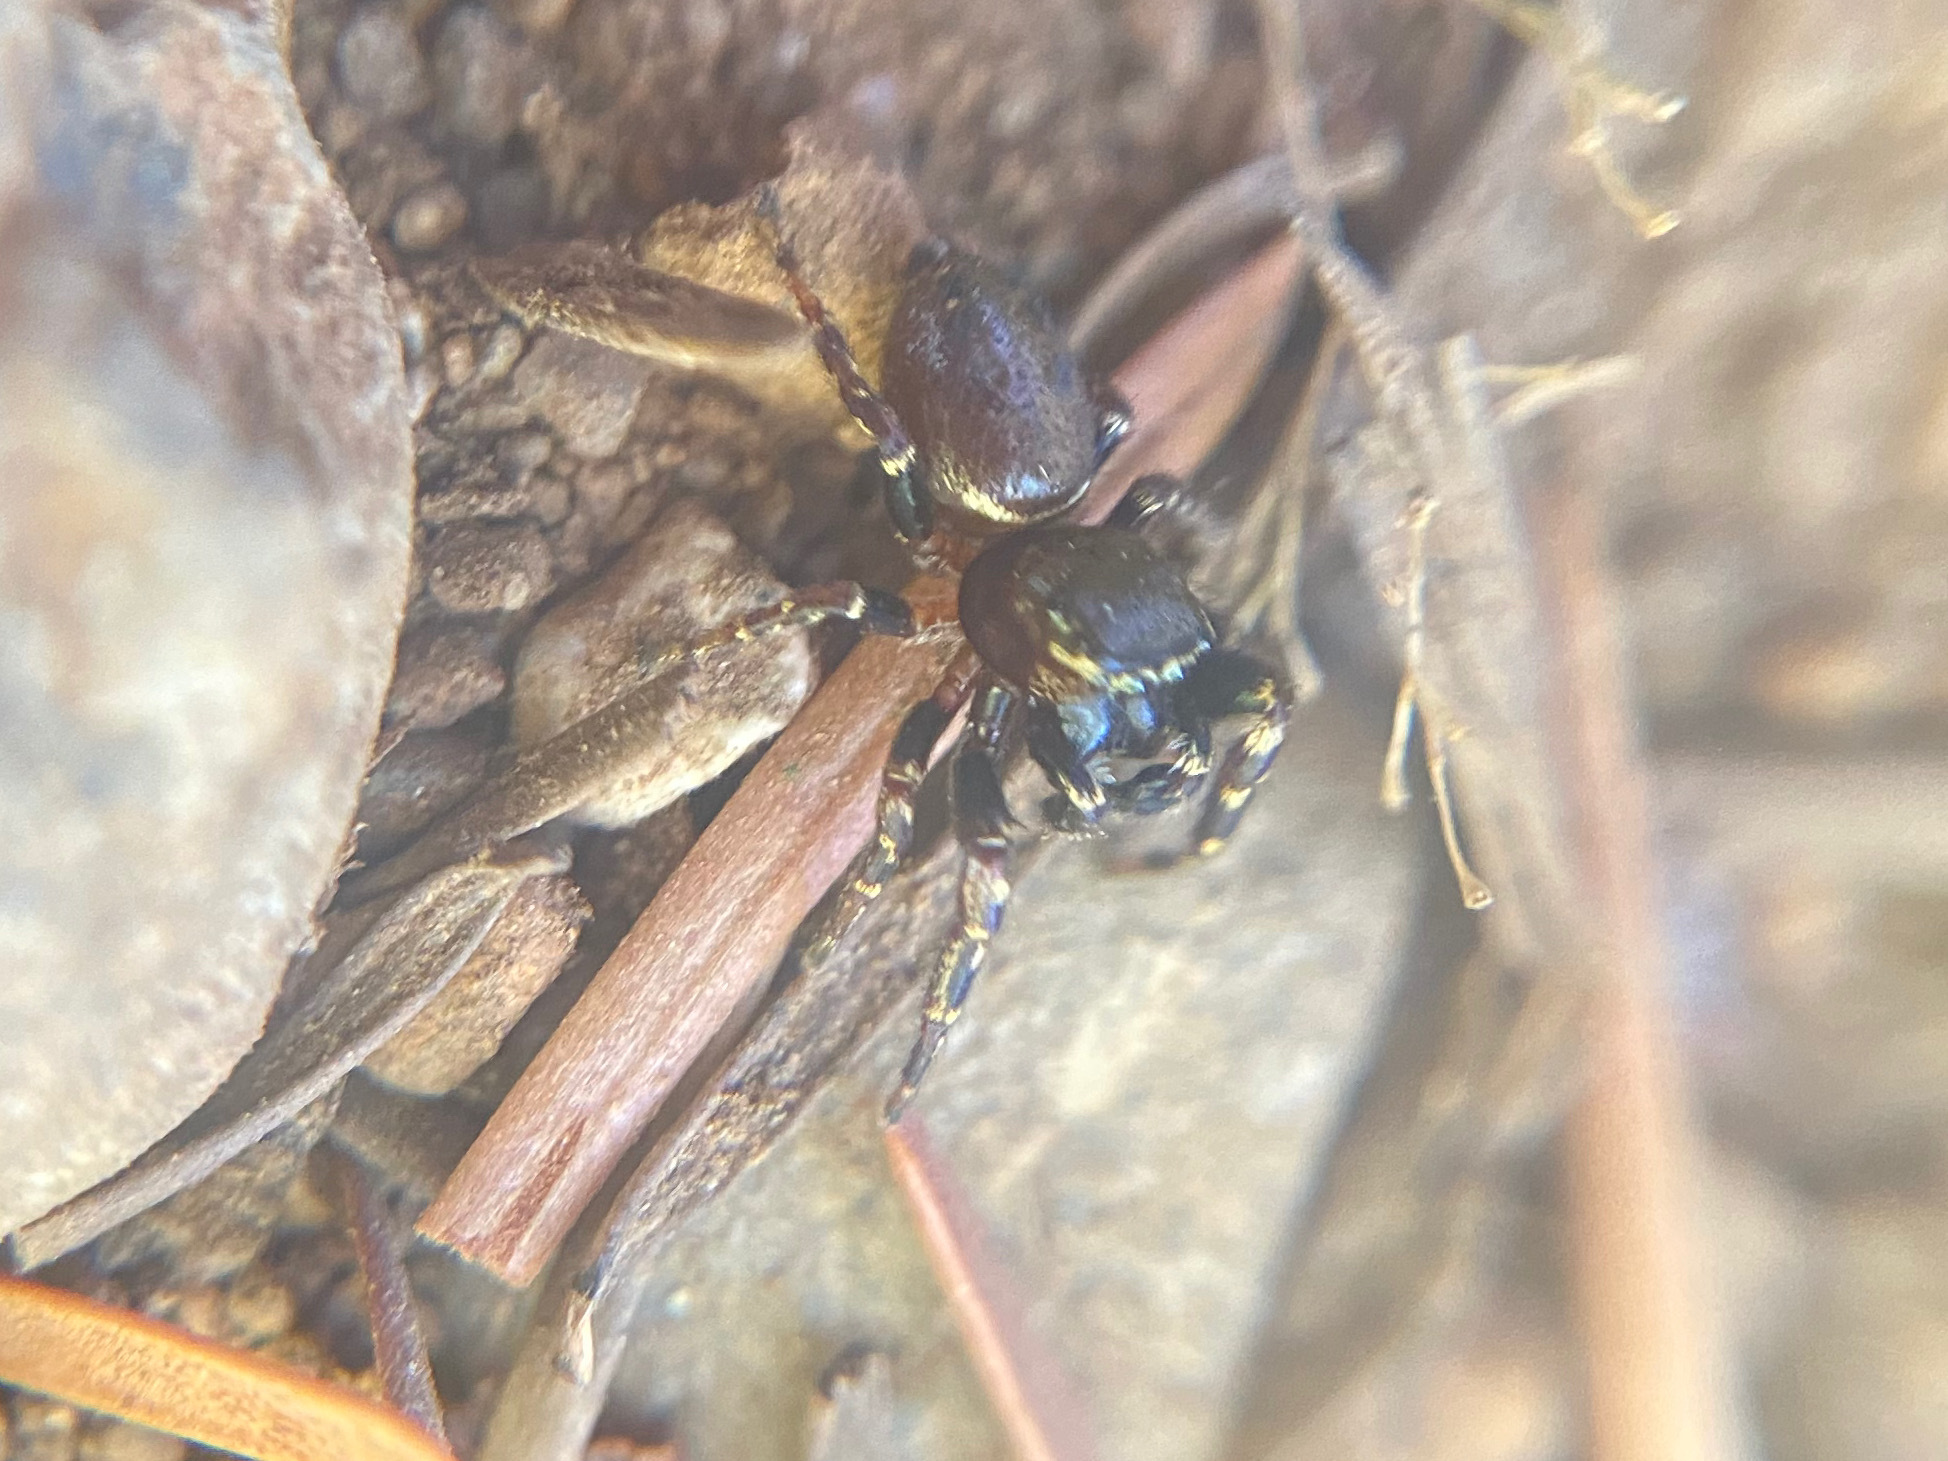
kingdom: Animalia
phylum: Arthropoda
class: Arachnida
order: Araneae
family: Salticidae
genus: Pelegrina
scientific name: Pelegrina aeneola
